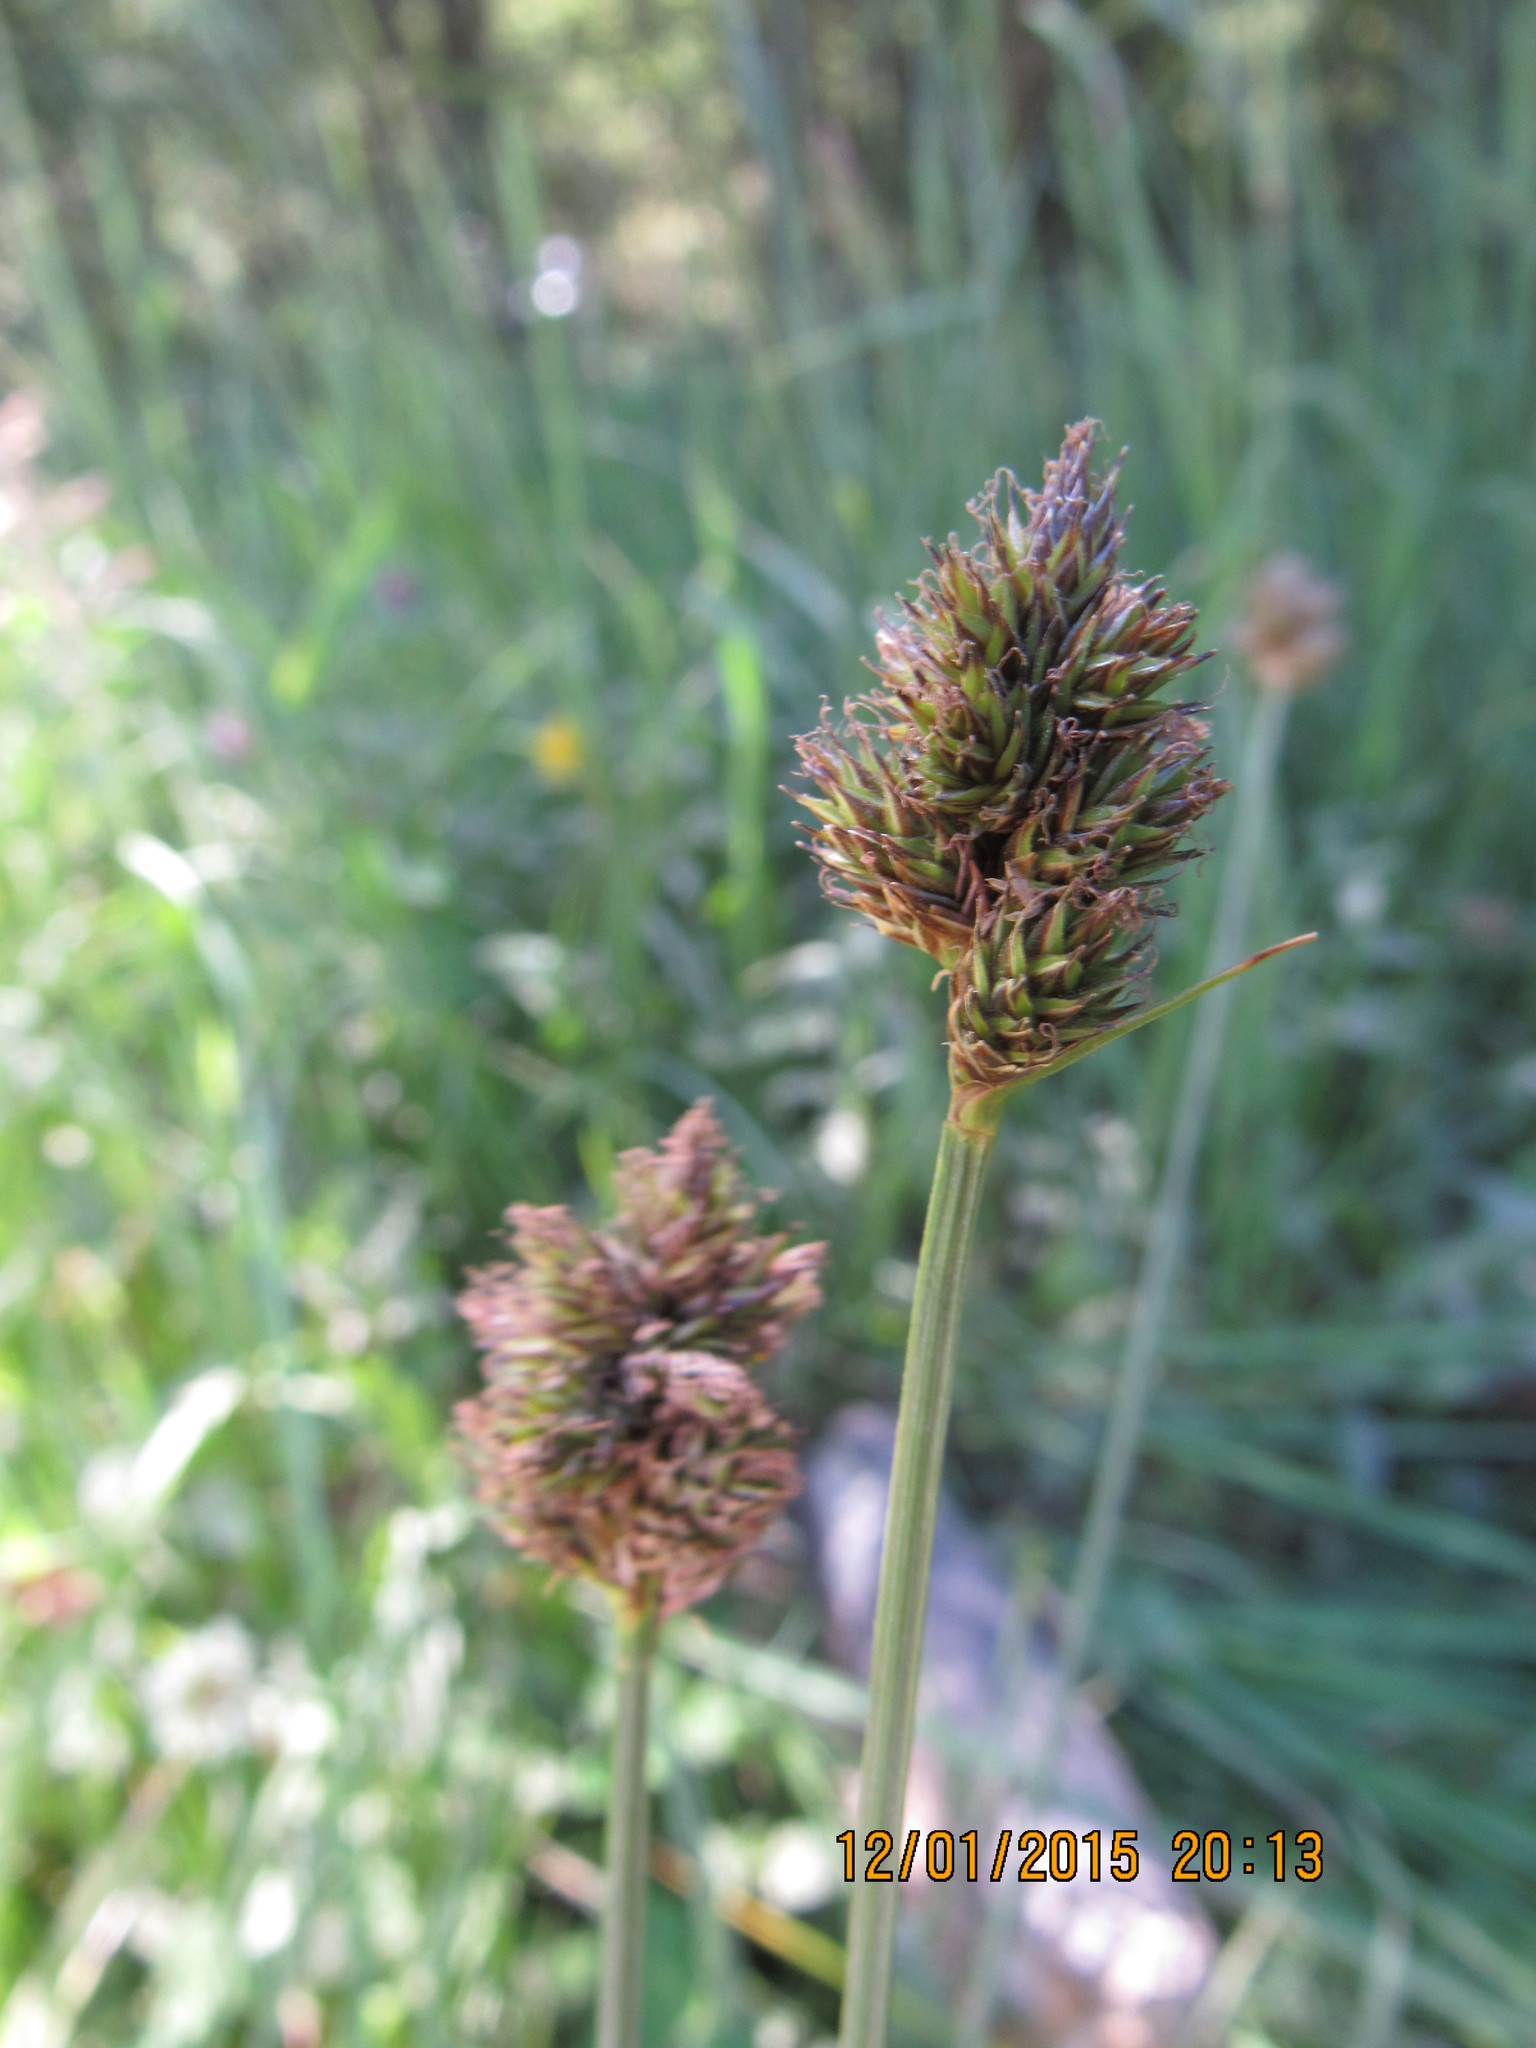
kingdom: Plantae
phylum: Tracheophyta
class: Liliopsida
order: Poales
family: Cyperaceae
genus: Carex
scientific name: Carex macloviana
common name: Falkland island sedge
